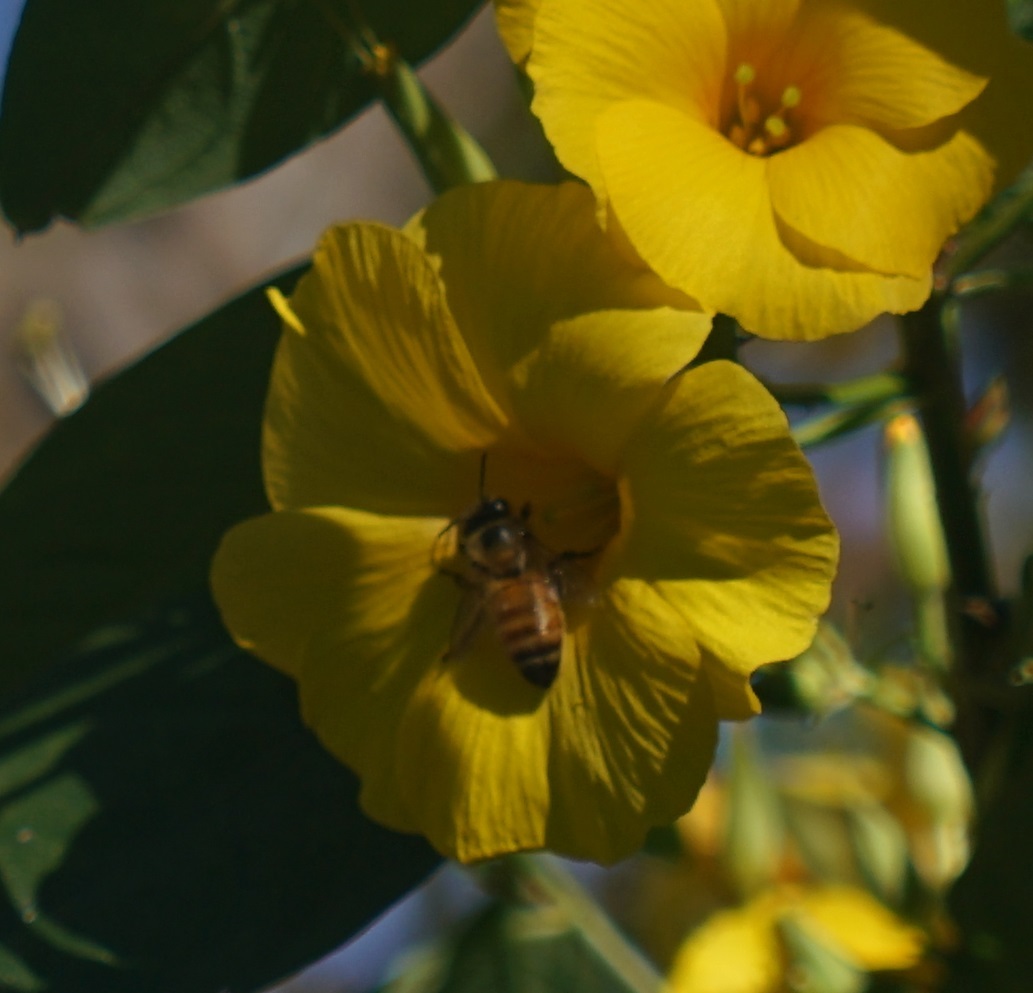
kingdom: Animalia
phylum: Arthropoda
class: Insecta
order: Hymenoptera
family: Apidae
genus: Apis
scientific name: Apis mellifera
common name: Honey bee
